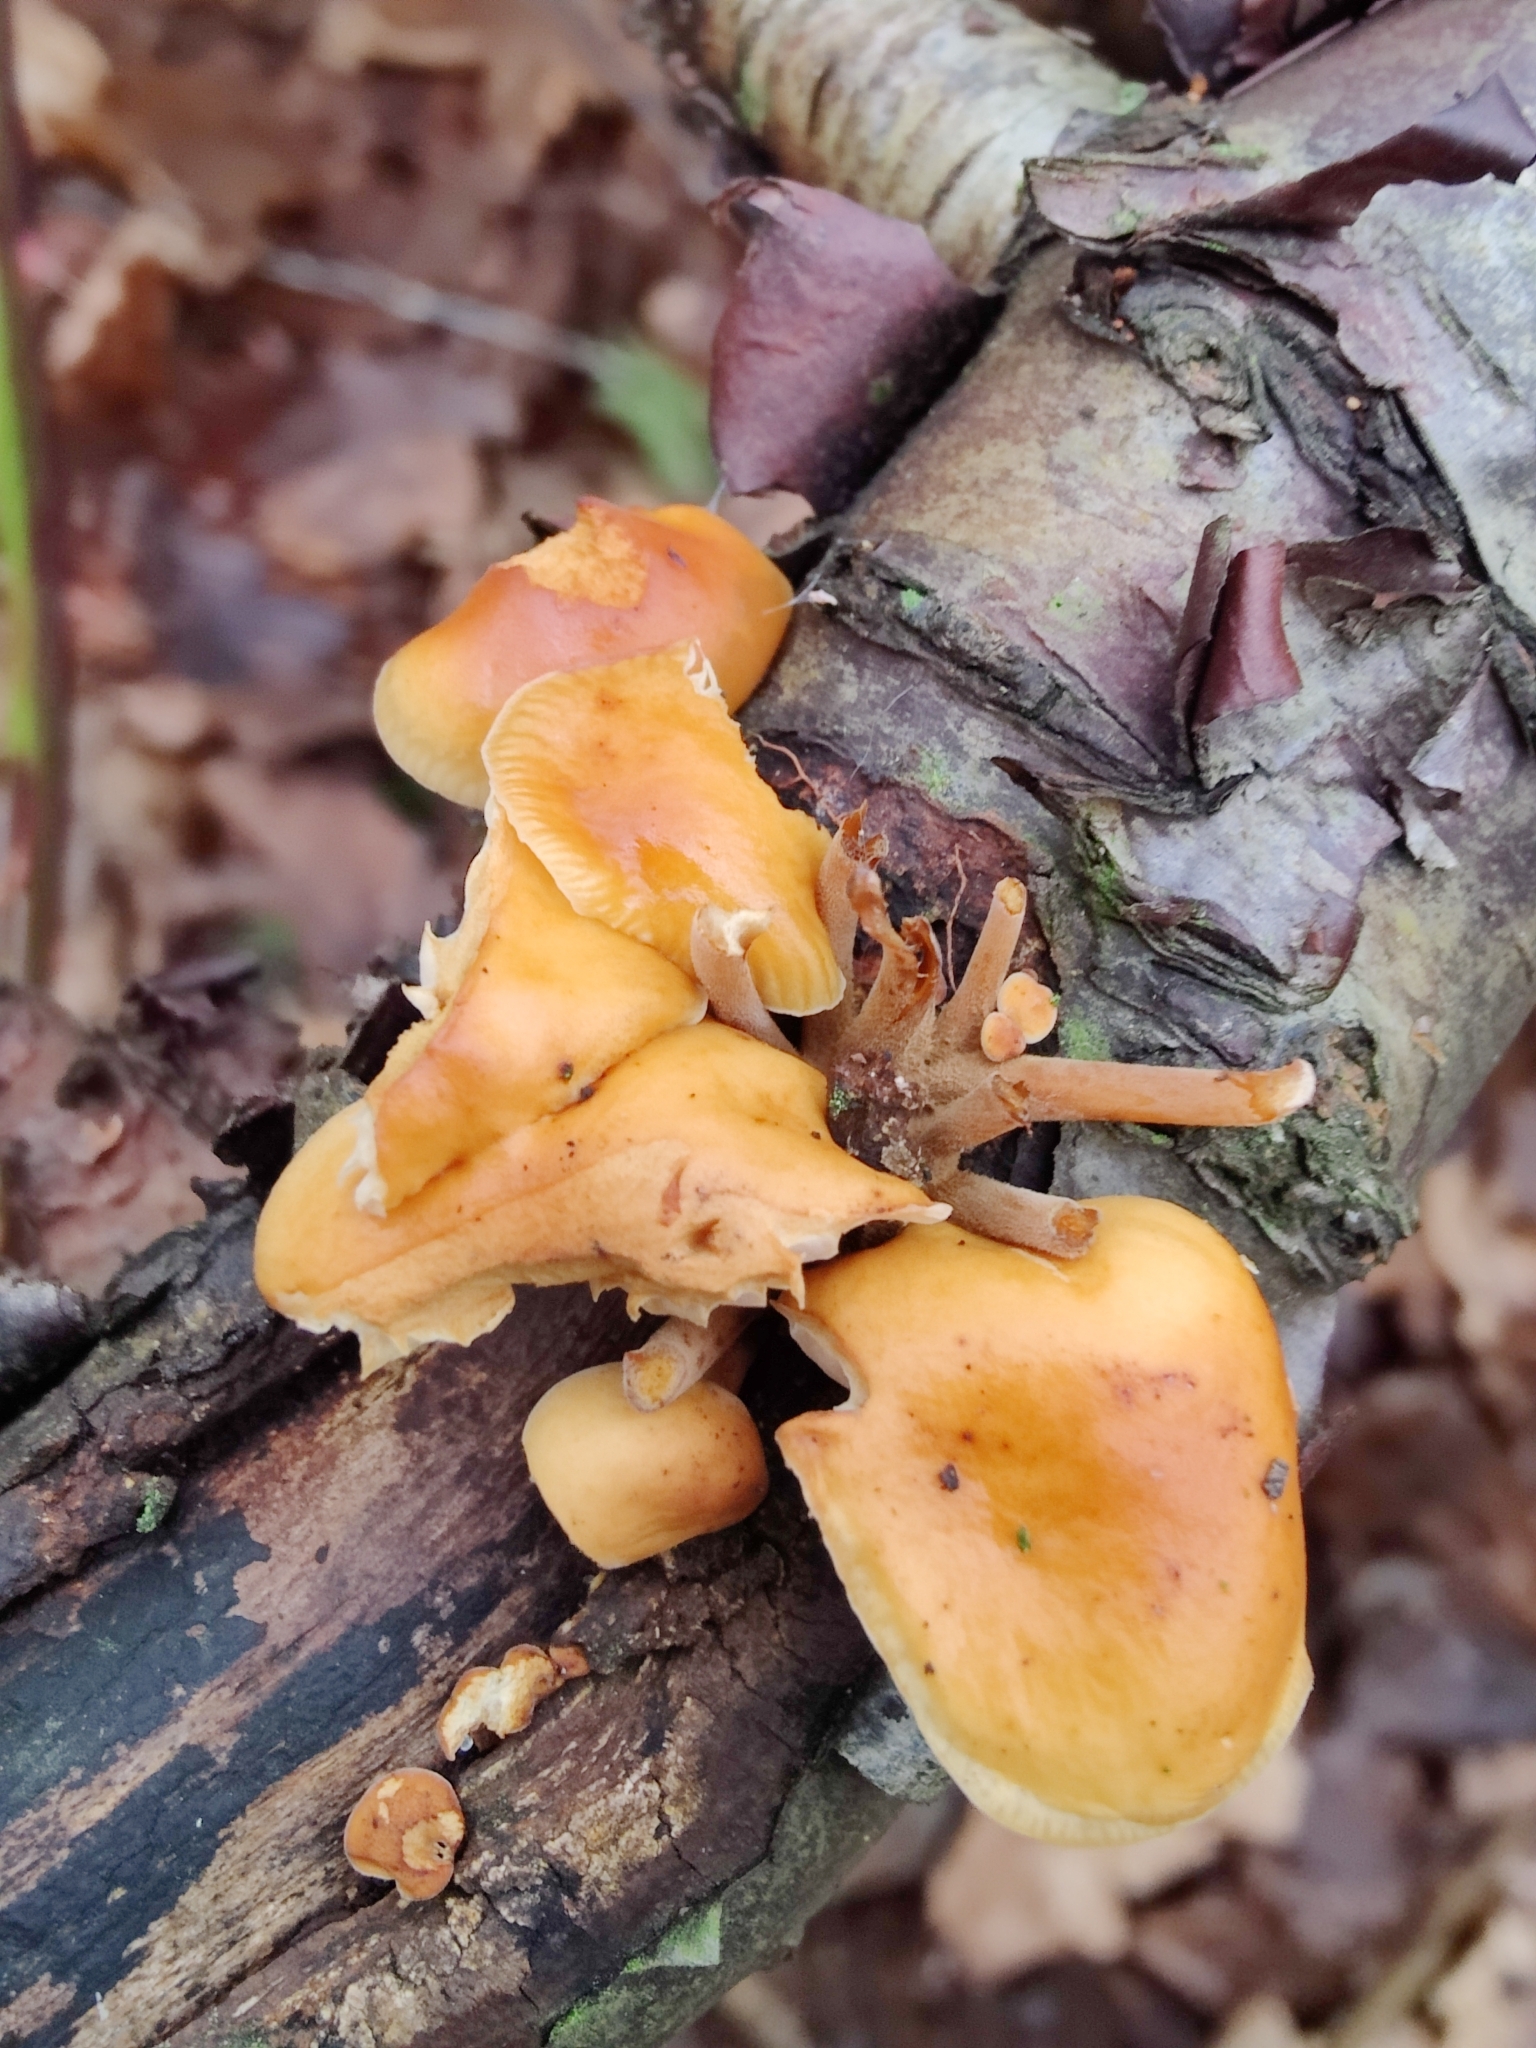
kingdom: Fungi
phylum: Basidiomycota
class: Agaricomycetes
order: Agaricales
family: Physalacriaceae
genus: Flammulina
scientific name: Flammulina
